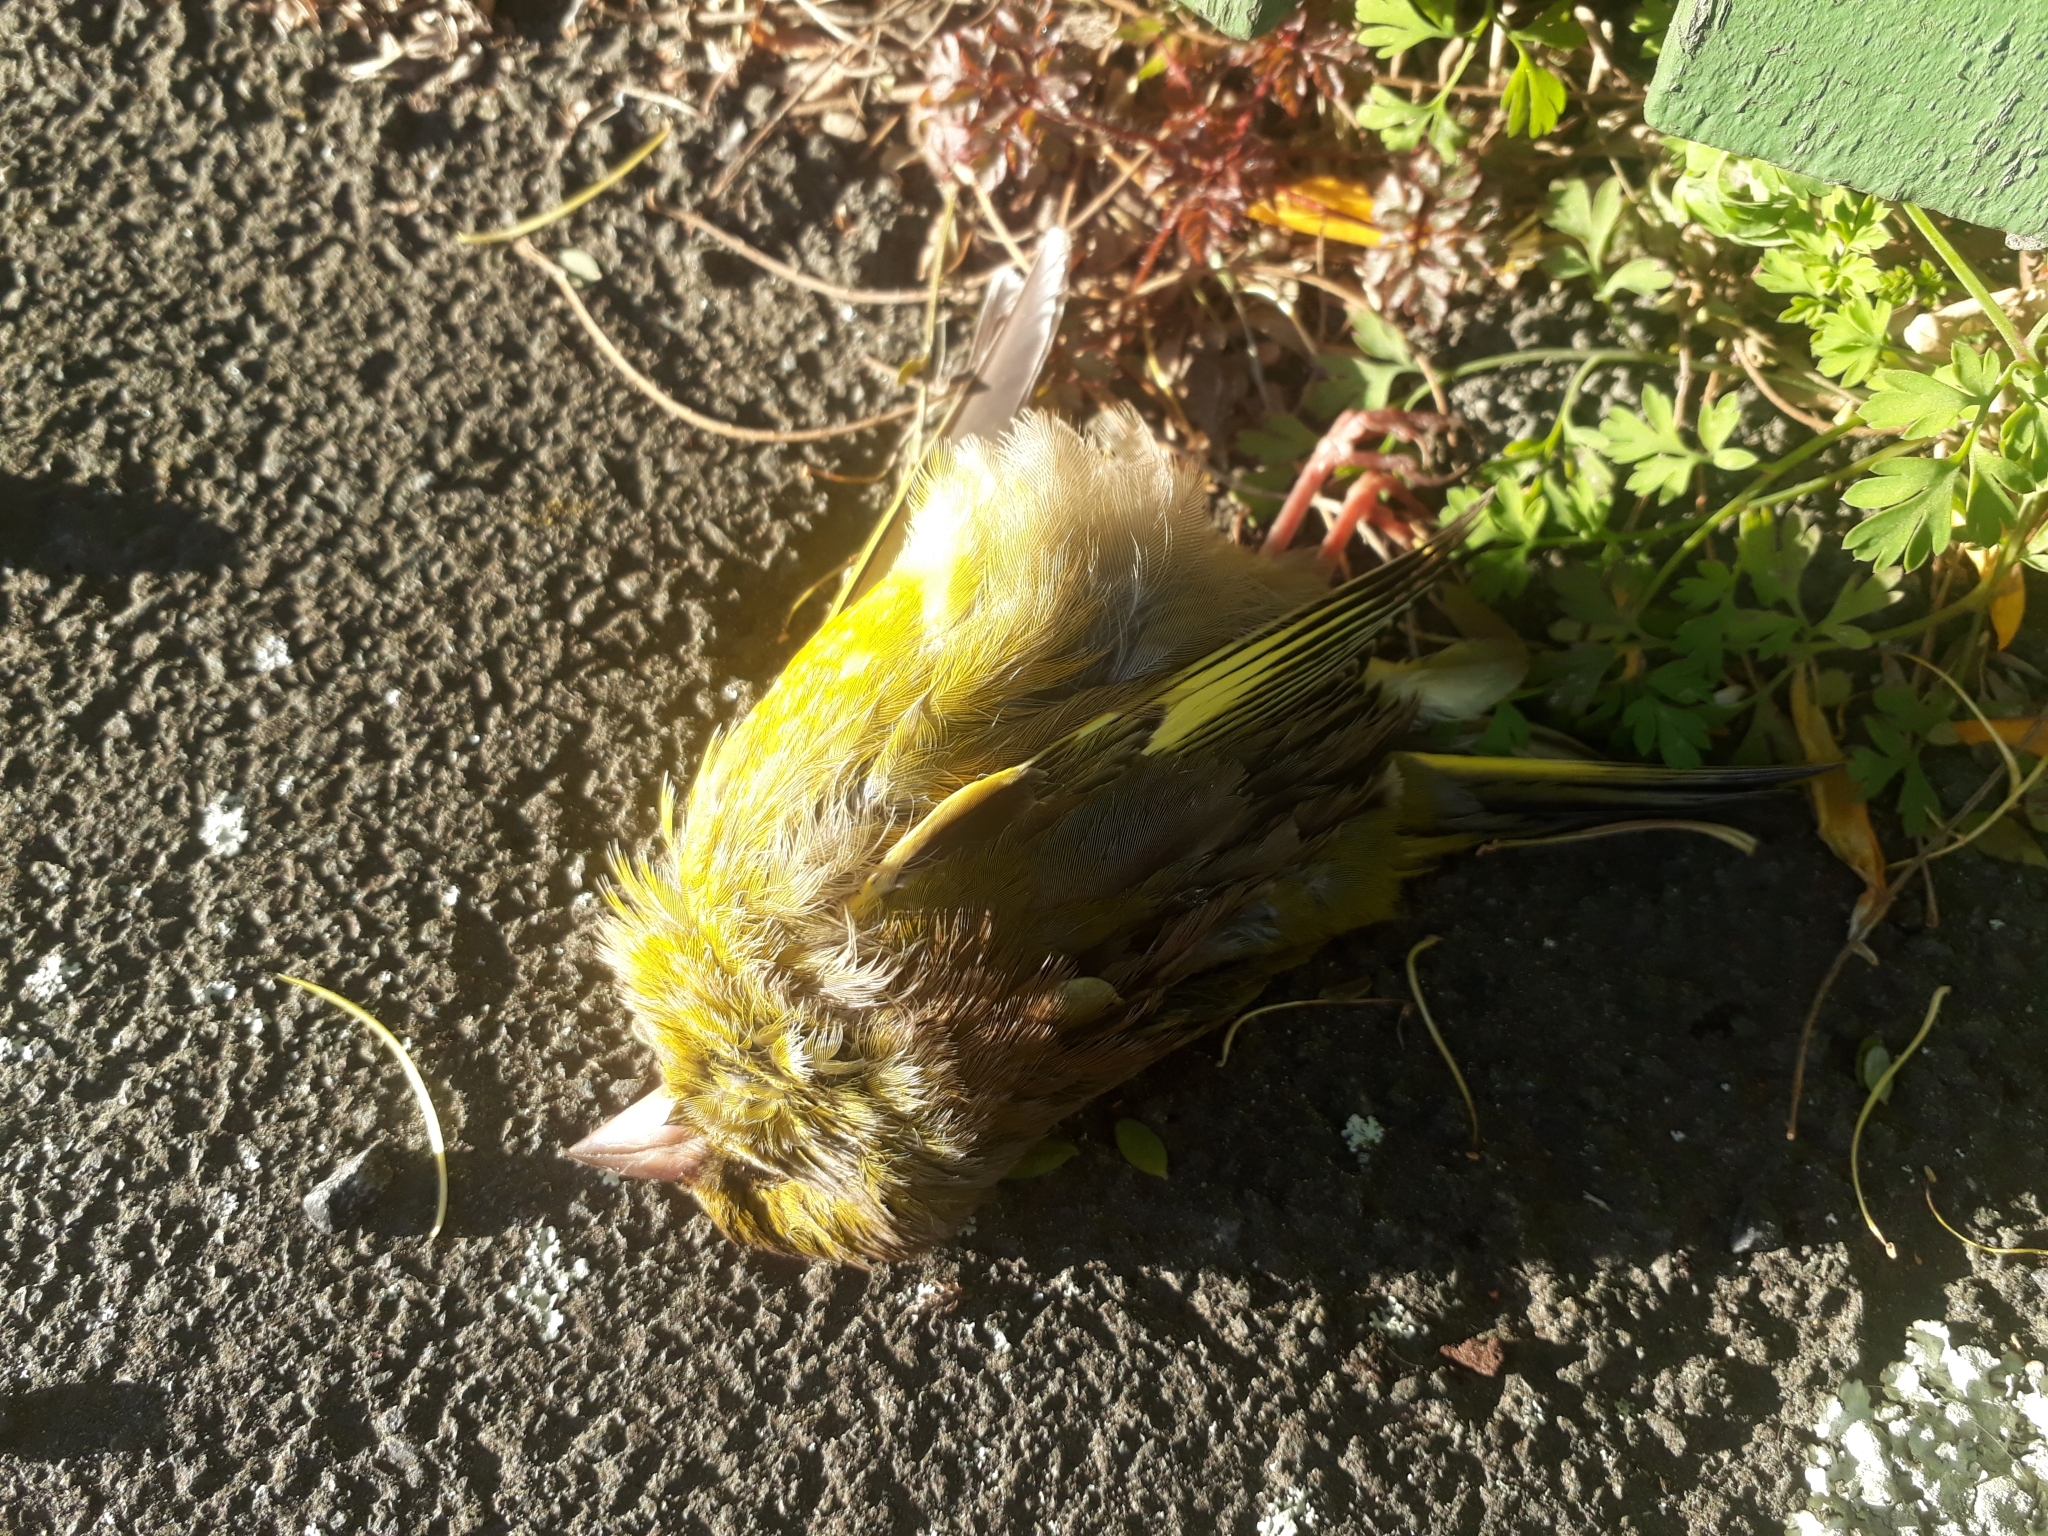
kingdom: Plantae
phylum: Tracheophyta
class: Liliopsida
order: Poales
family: Poaceae
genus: Chloris
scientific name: Chloris chloris
